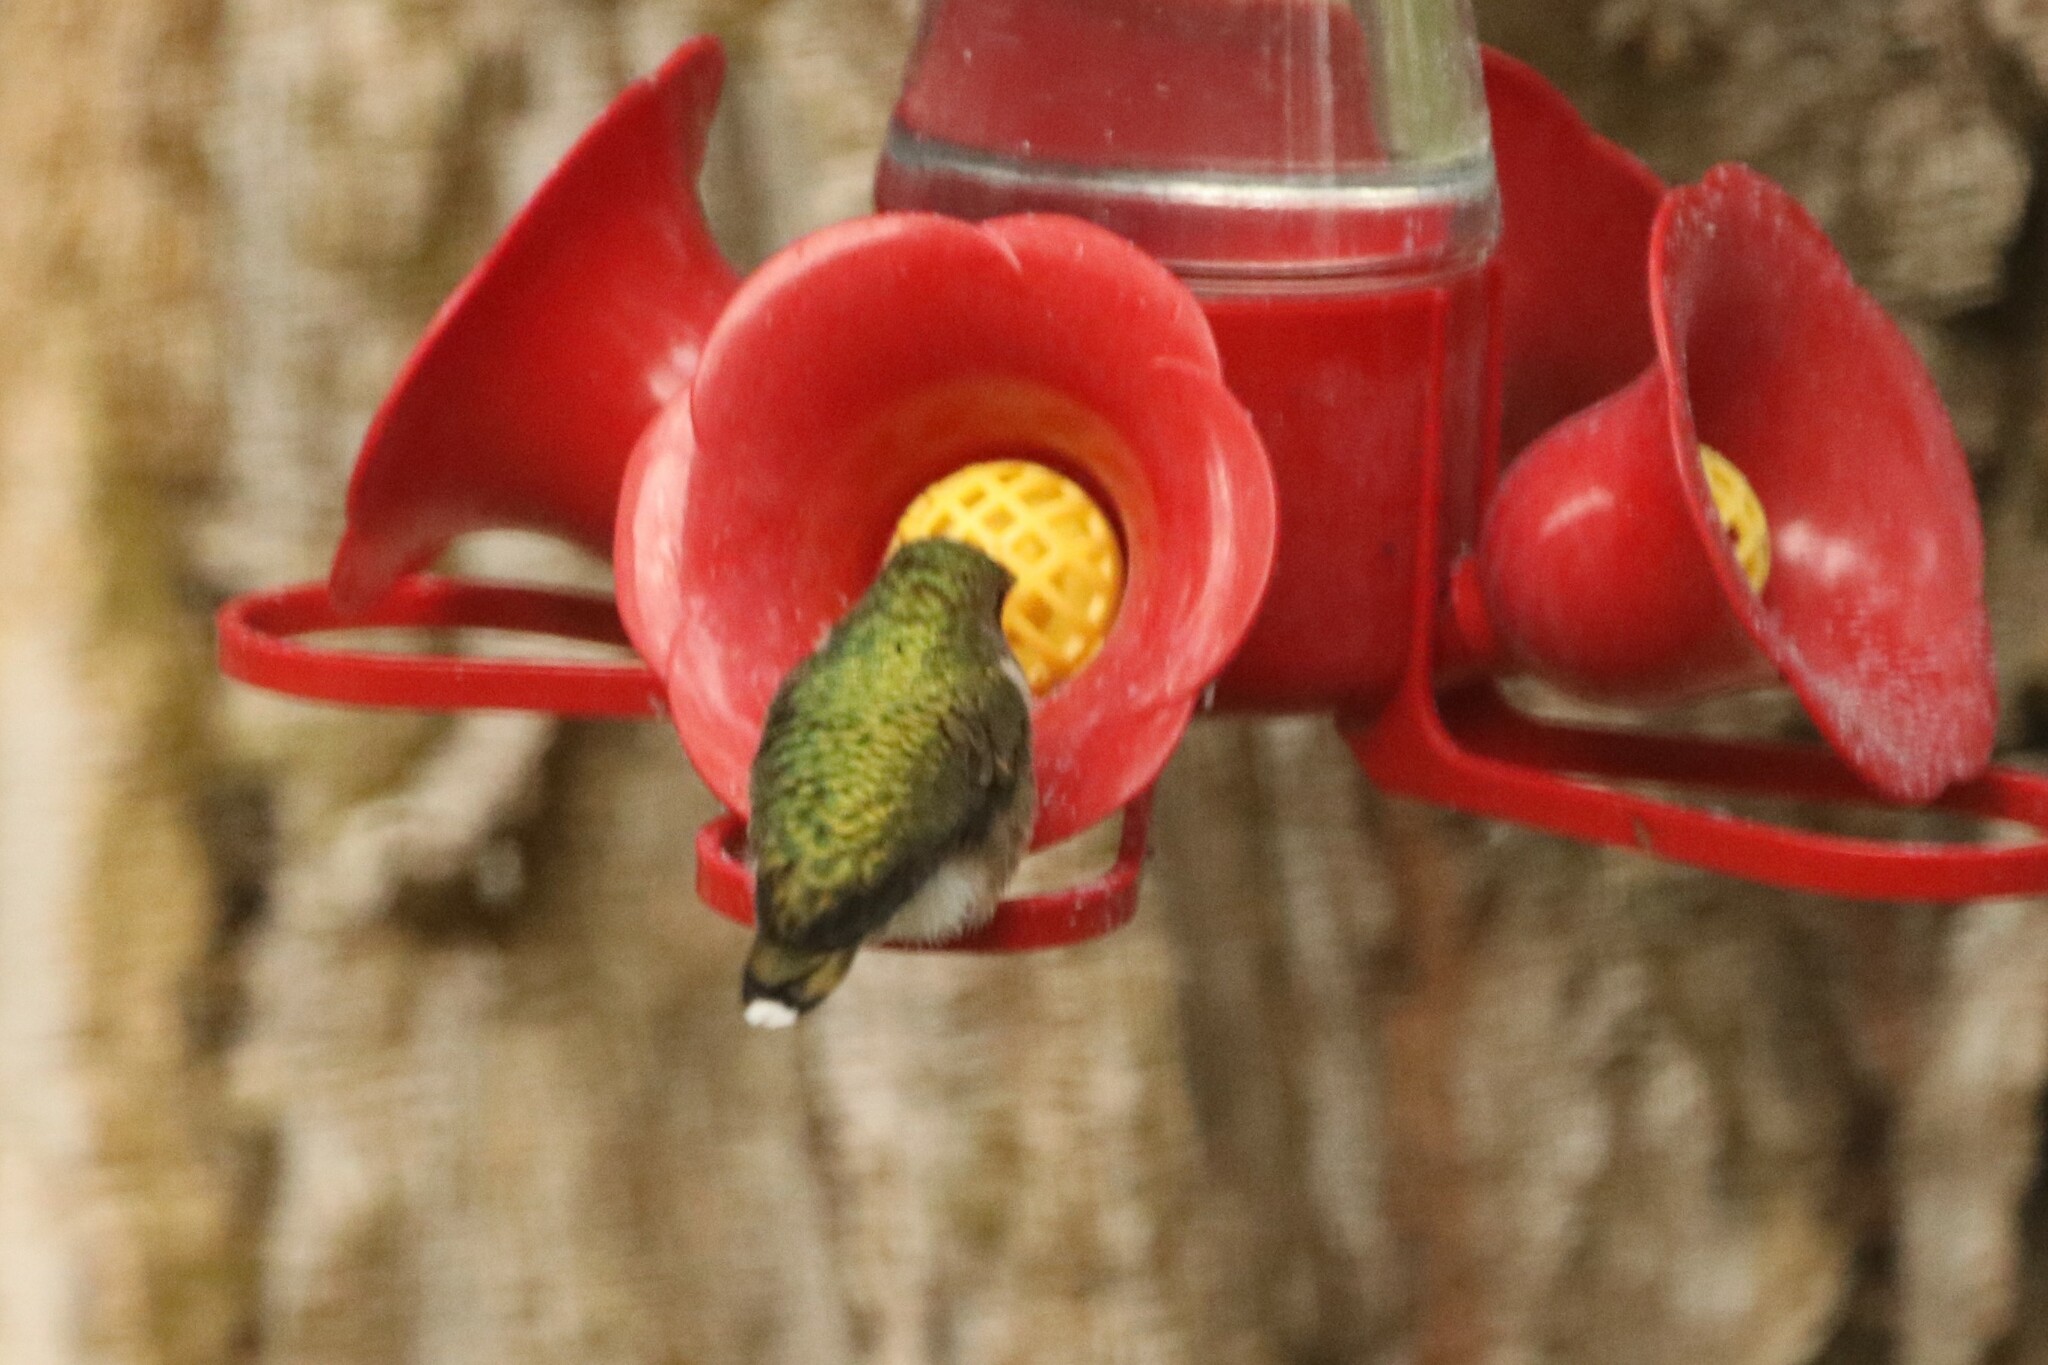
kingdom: Animalia
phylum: Chordata
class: Aves
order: Apodiformes
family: Trochilidae
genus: Archilochus
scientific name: Archilochus colubris
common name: Ruby-throated hummingbird
